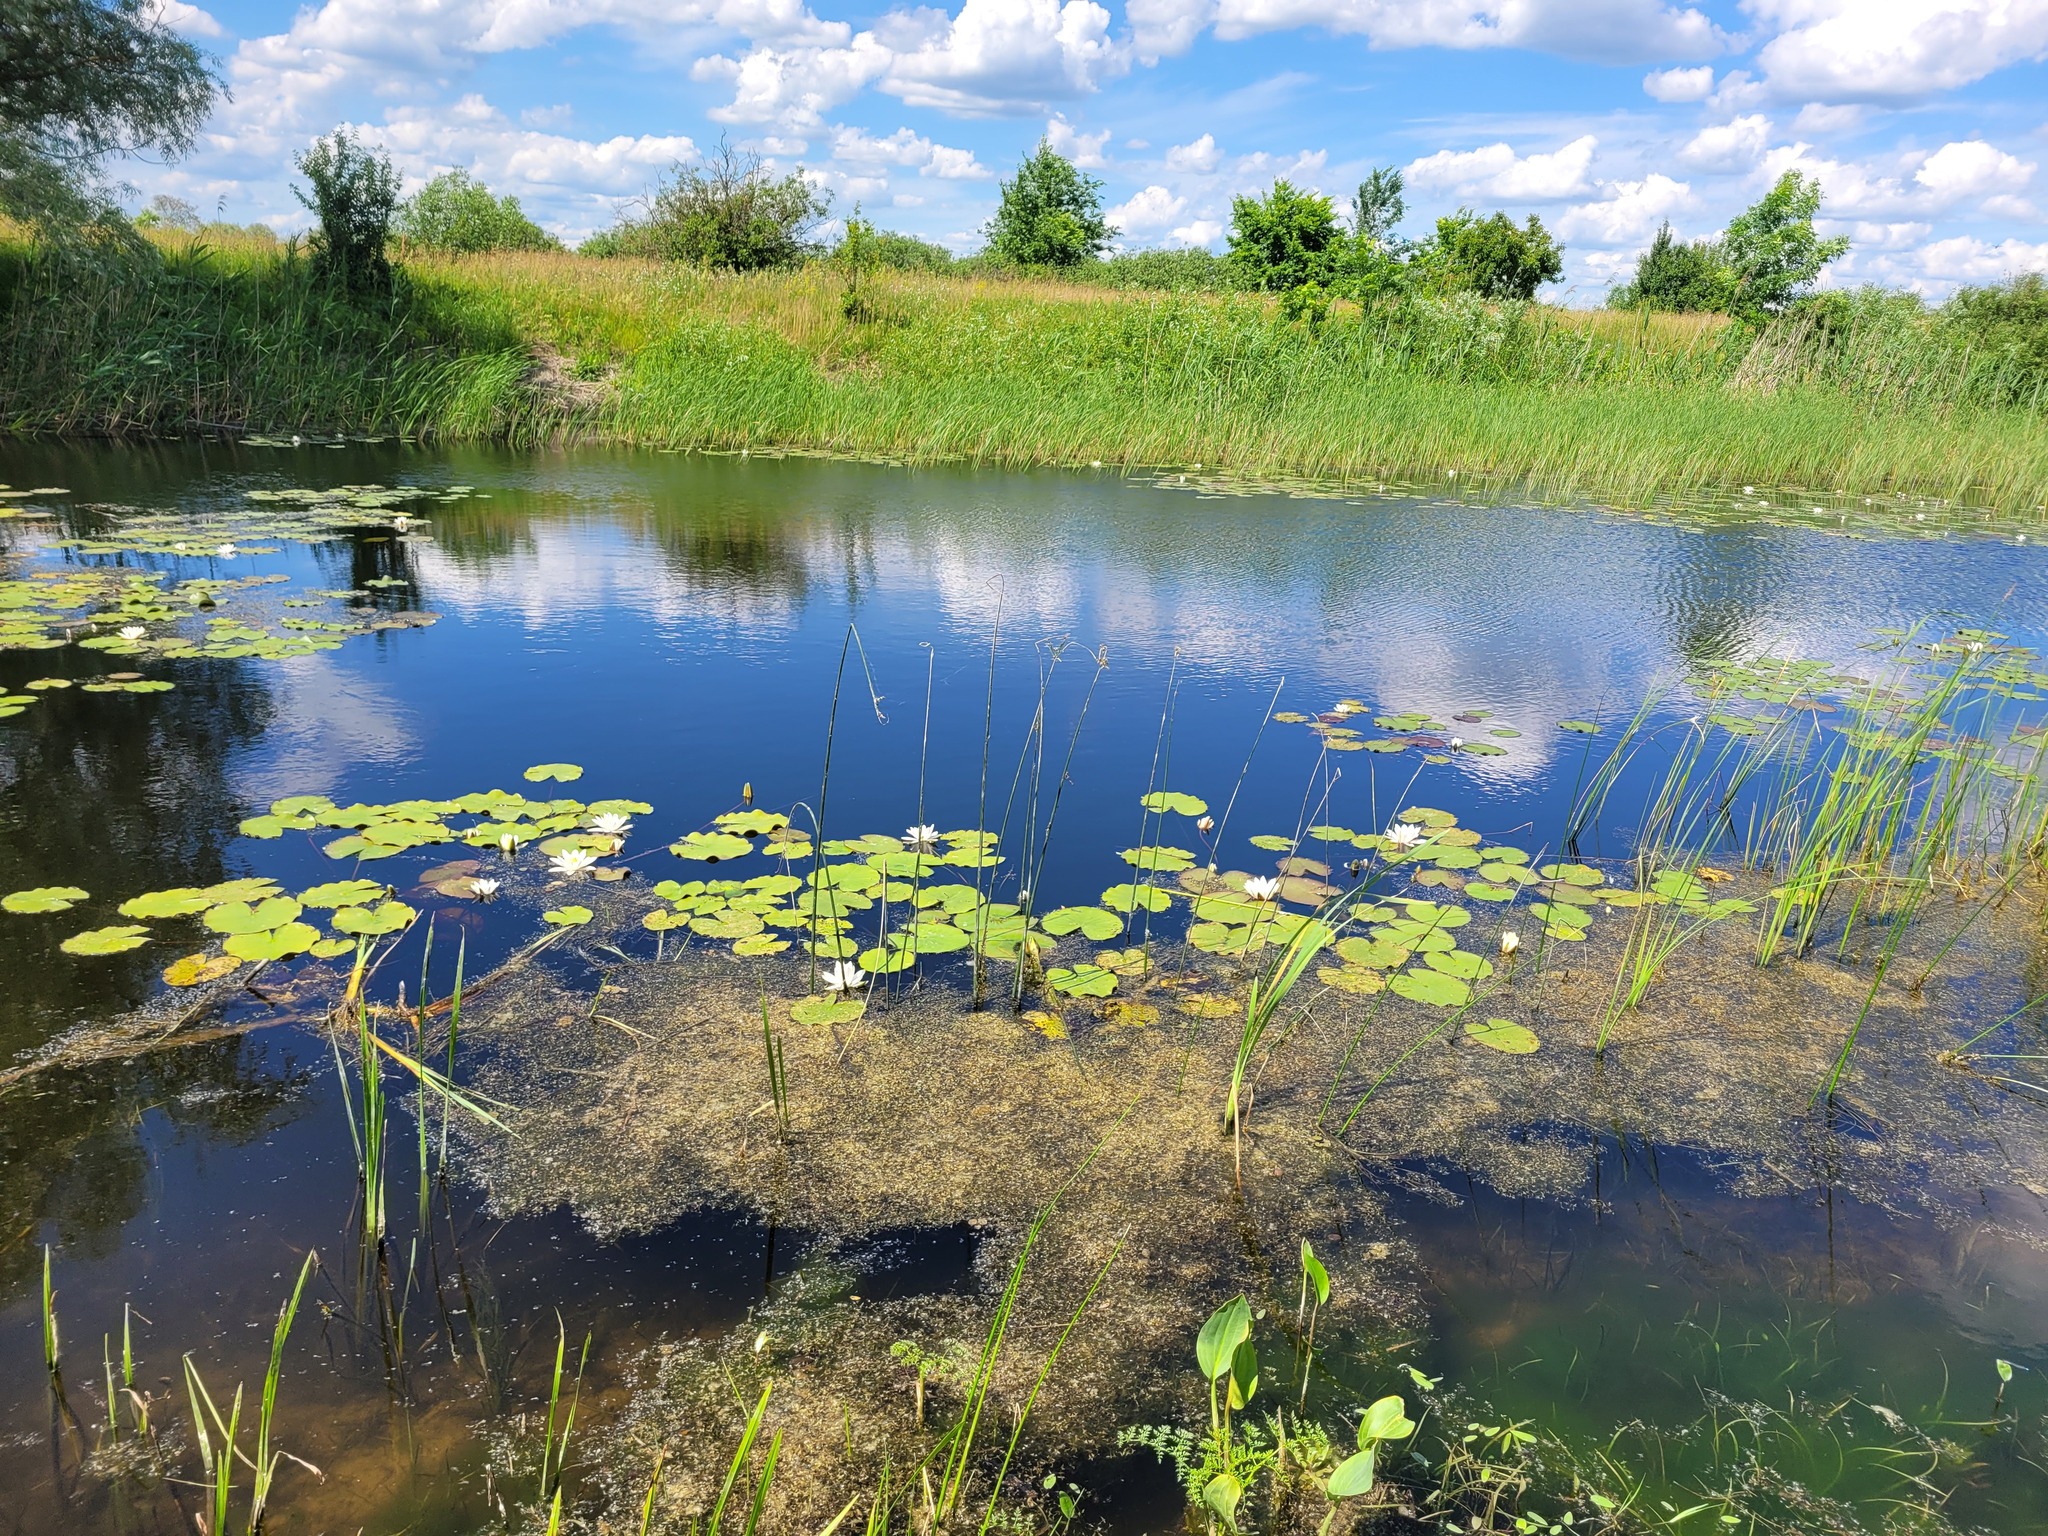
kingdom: Plantae
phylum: Tracheophyta
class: Magnoliopsida
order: Nymphaeales
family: Nymphaeaceae
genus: Nymphaea
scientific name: Nymphaea candida
